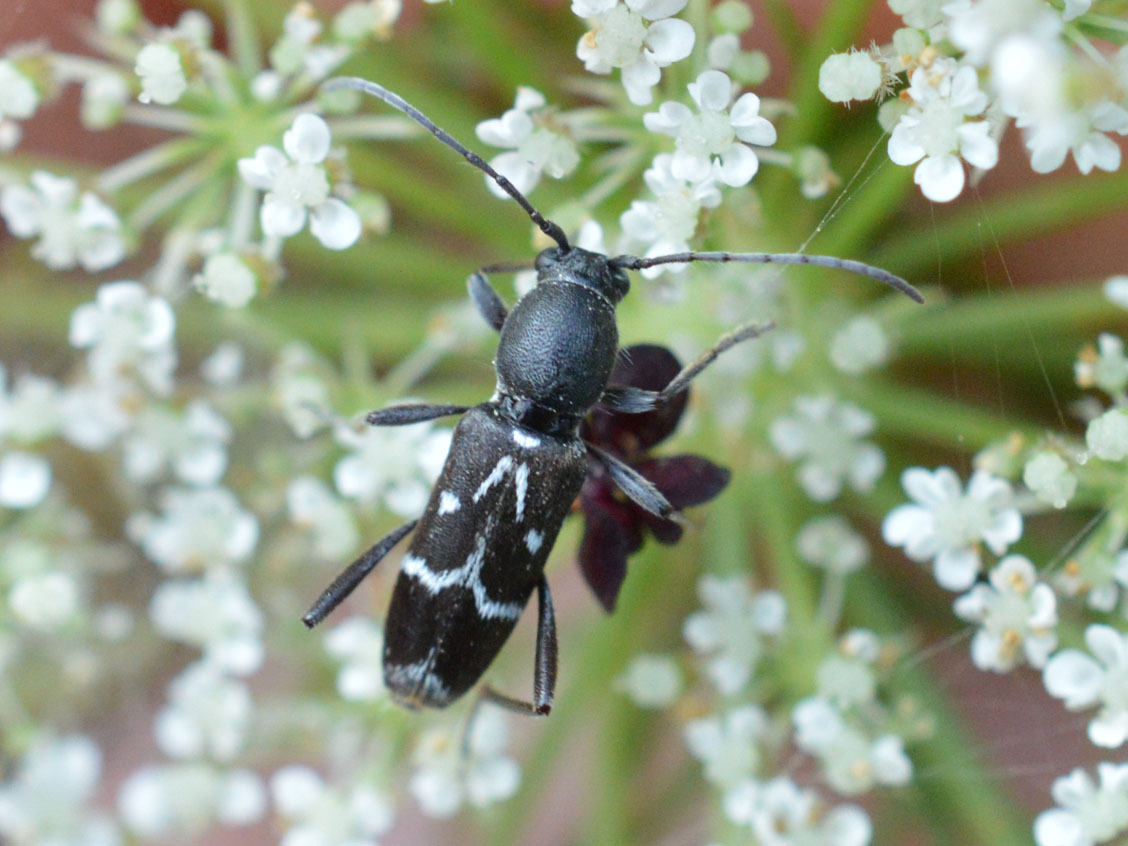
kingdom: Animalia
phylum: Arthropoda
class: Insecta
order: Coleoptera
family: Cerambycidae
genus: Chlorophorus
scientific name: Chlorophorus sartor
